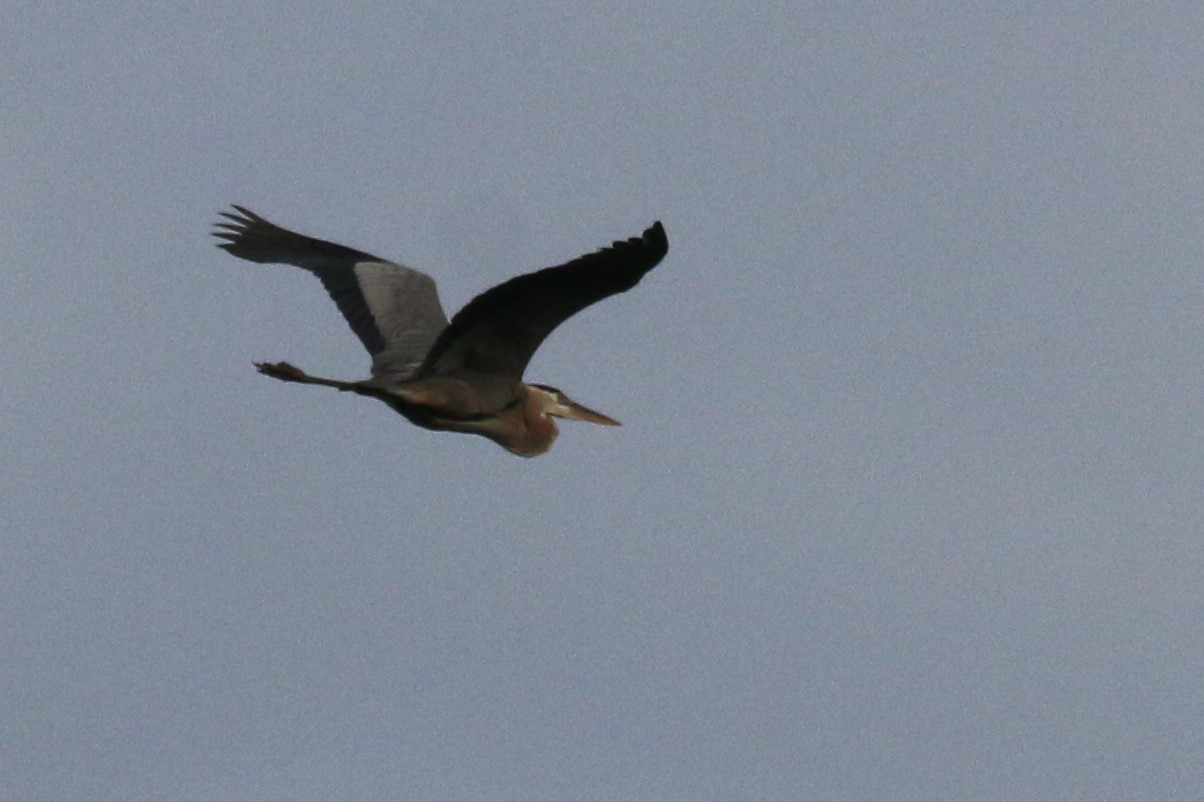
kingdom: Animalia
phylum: Chordata
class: Aves
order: Pelecaniformes
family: Ardeidae
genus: Ardea
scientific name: Ardea herodias
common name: Great blue heron
